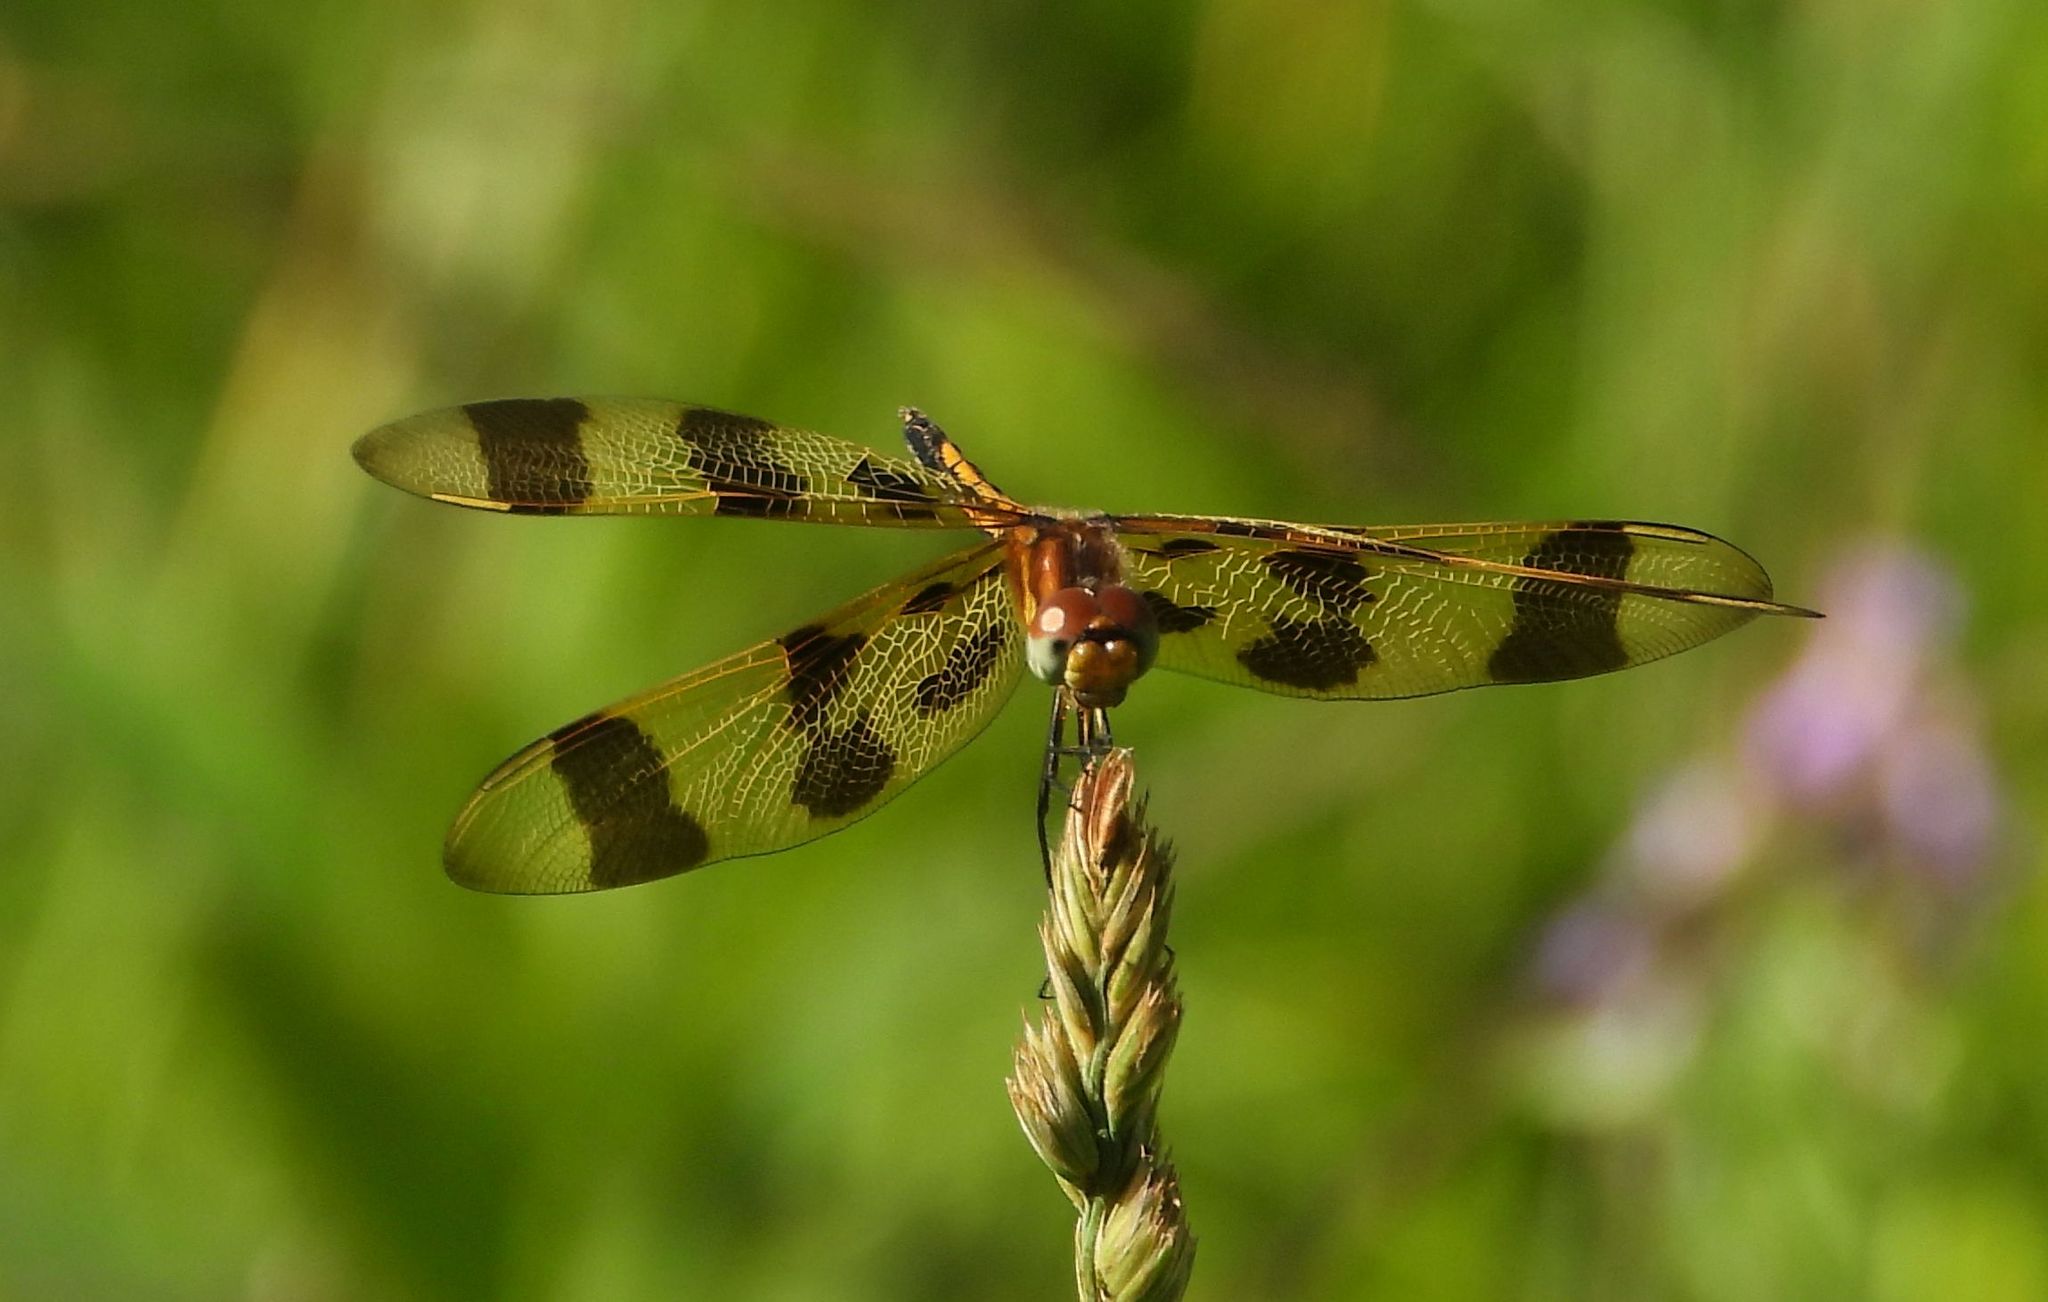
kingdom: Animalia
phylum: Arthropoda
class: Insecta
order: Odonata
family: Libellulidae
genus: Celithemis
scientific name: Celithemis eponina
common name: Halloween pennant
